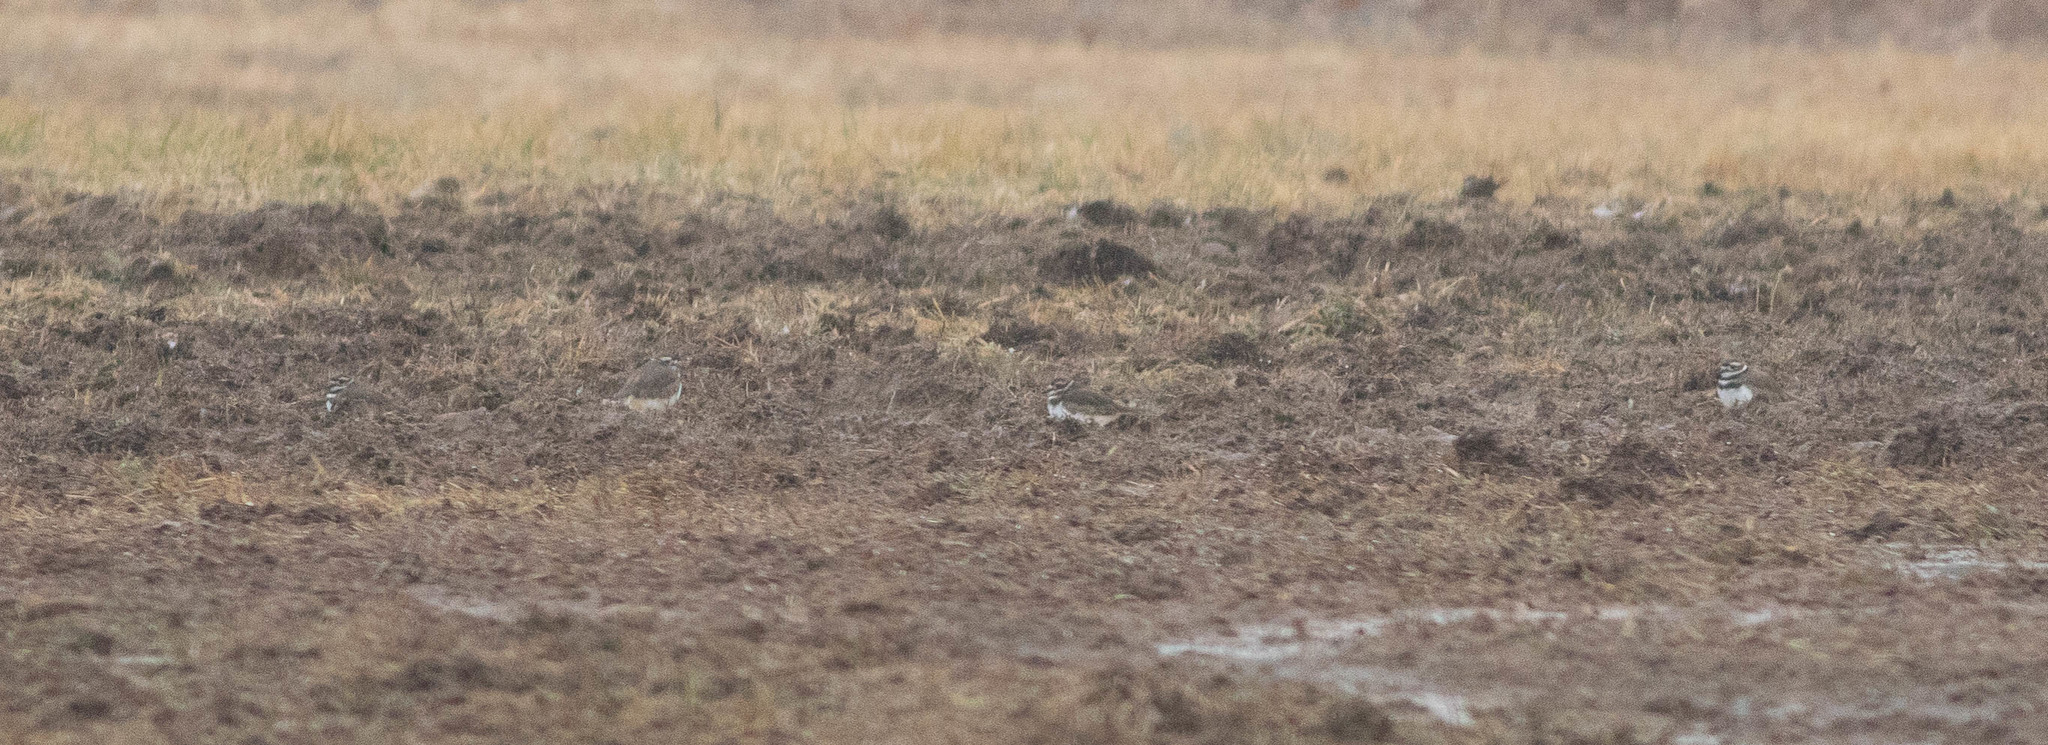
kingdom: Animalia
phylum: Chordata
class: Aves
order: Charadriiformes
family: Charadriidae
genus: Charadrius
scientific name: Charadrius vociferus
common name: Killdeer
